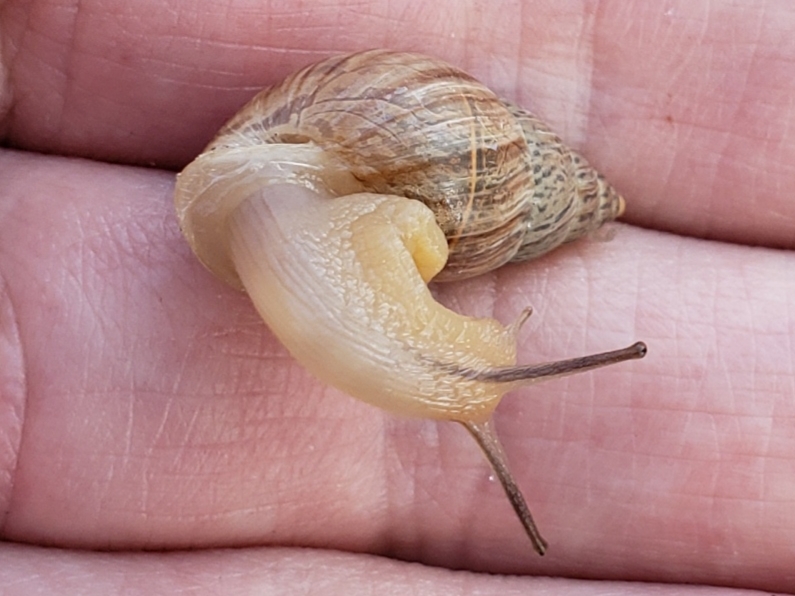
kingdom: Animalia
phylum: Mollusca
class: Gastropoda
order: Stylommatophora
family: Bulimulidae
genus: Bulimulus
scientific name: Bulimulus bonariensis
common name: Snail
